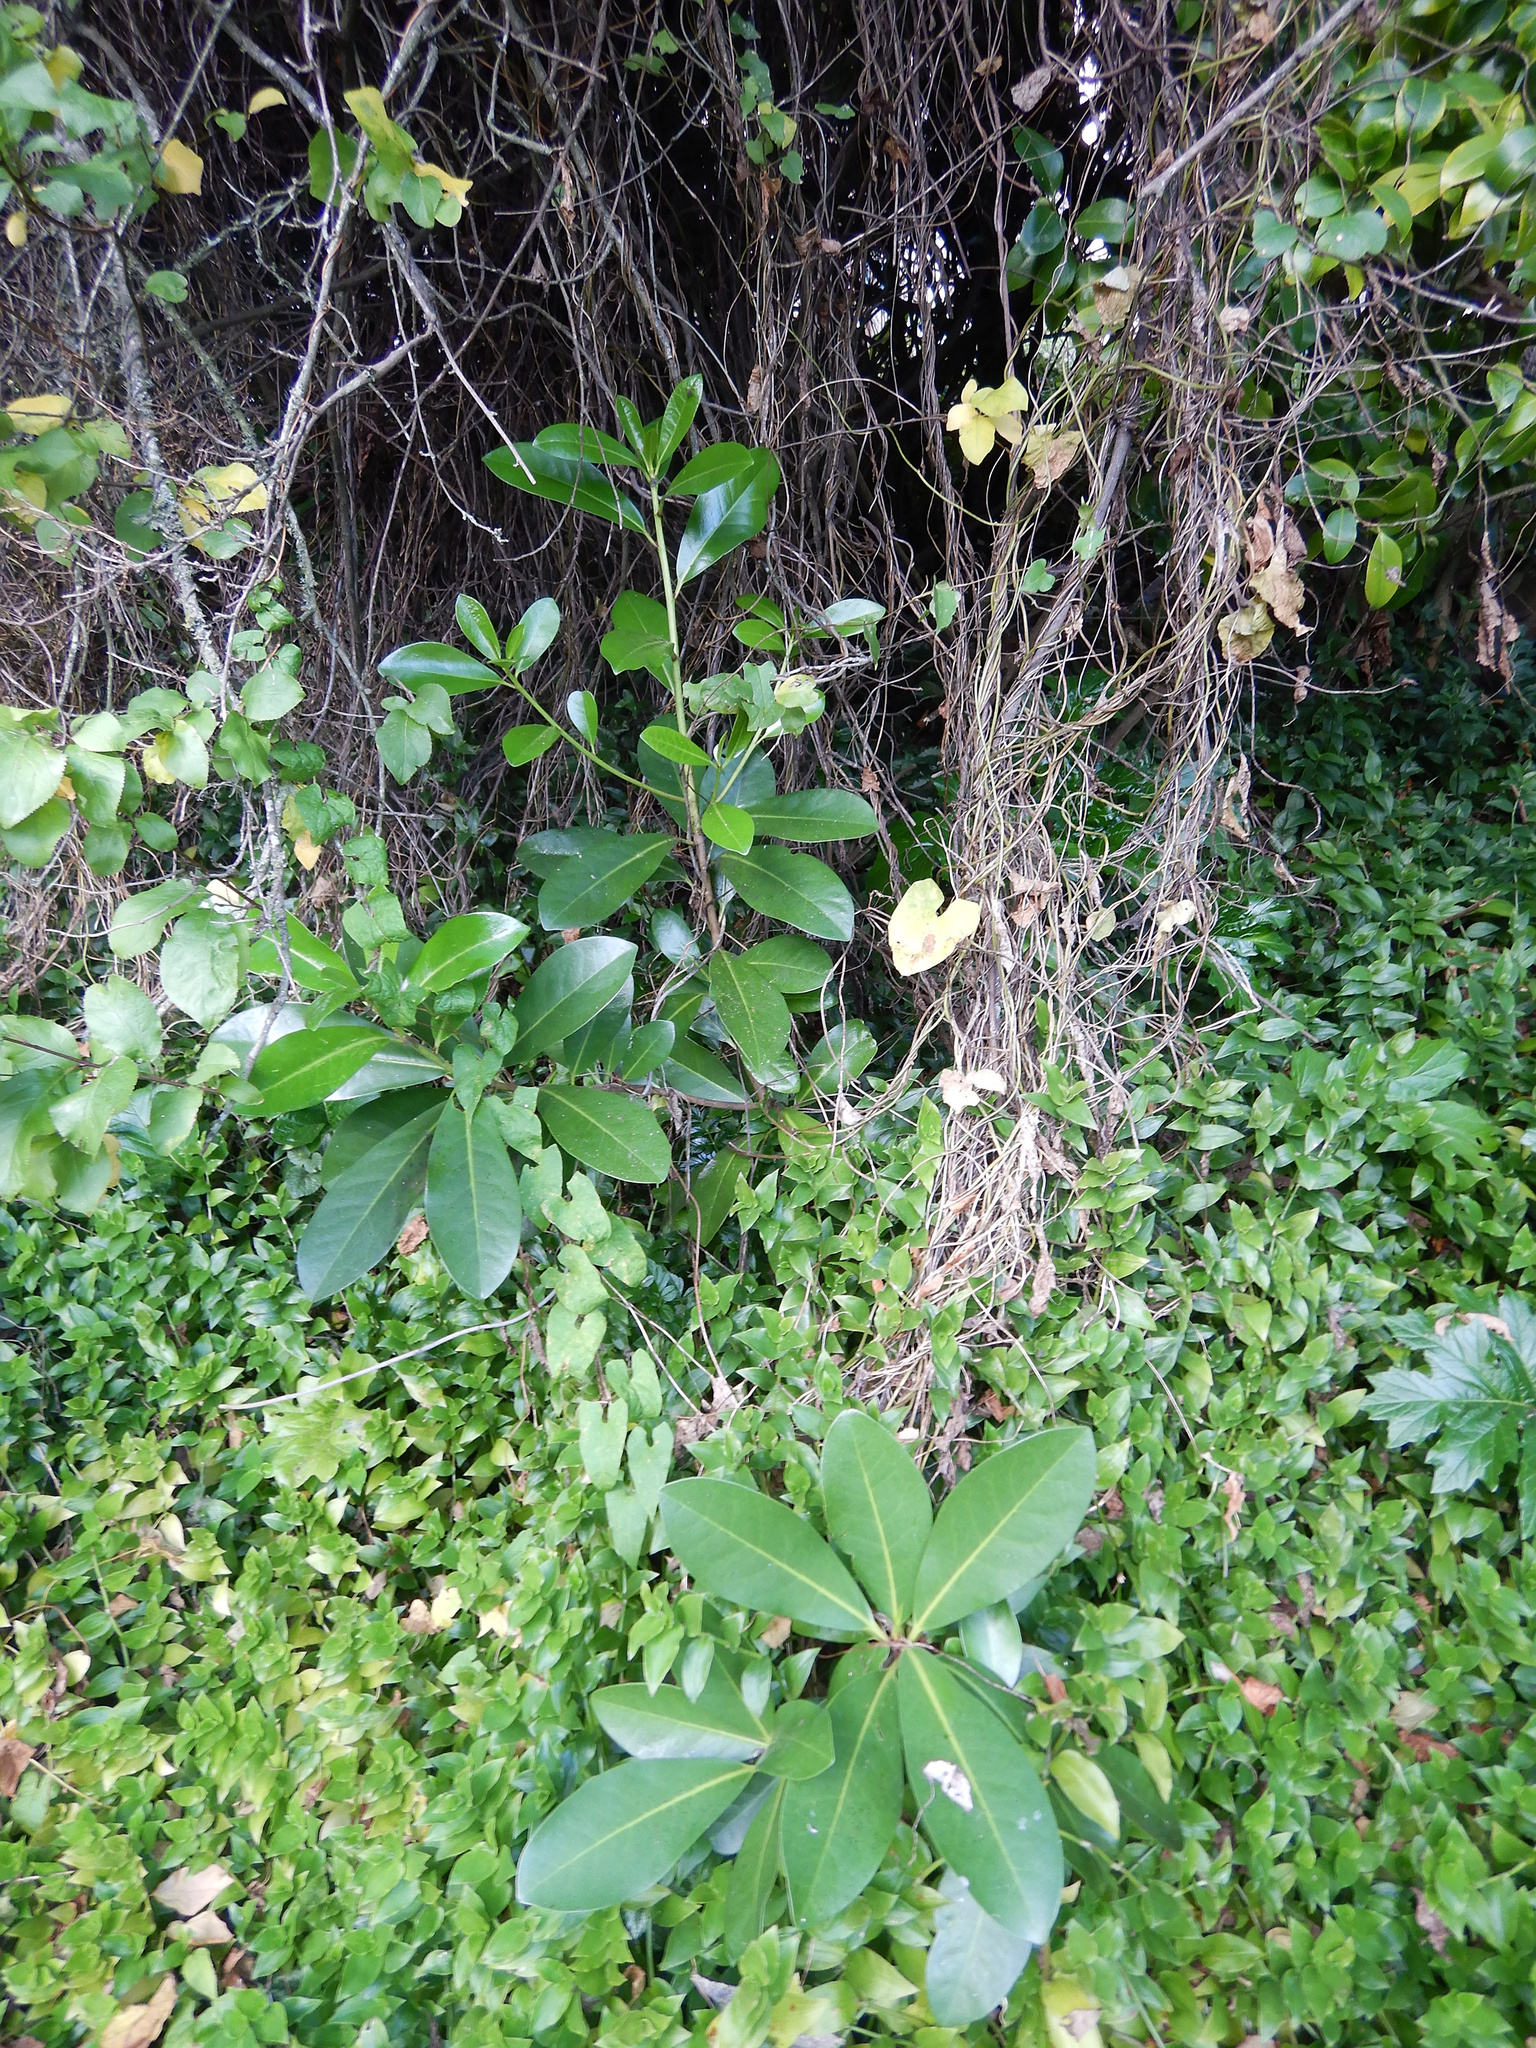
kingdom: Plantae
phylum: Tracheophyta
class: Magnoliopsida
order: Cucurbitales
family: Corynocarpaceae
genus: Corynocarpus
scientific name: Corynocarpus laevigatus
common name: New zealand laurel
